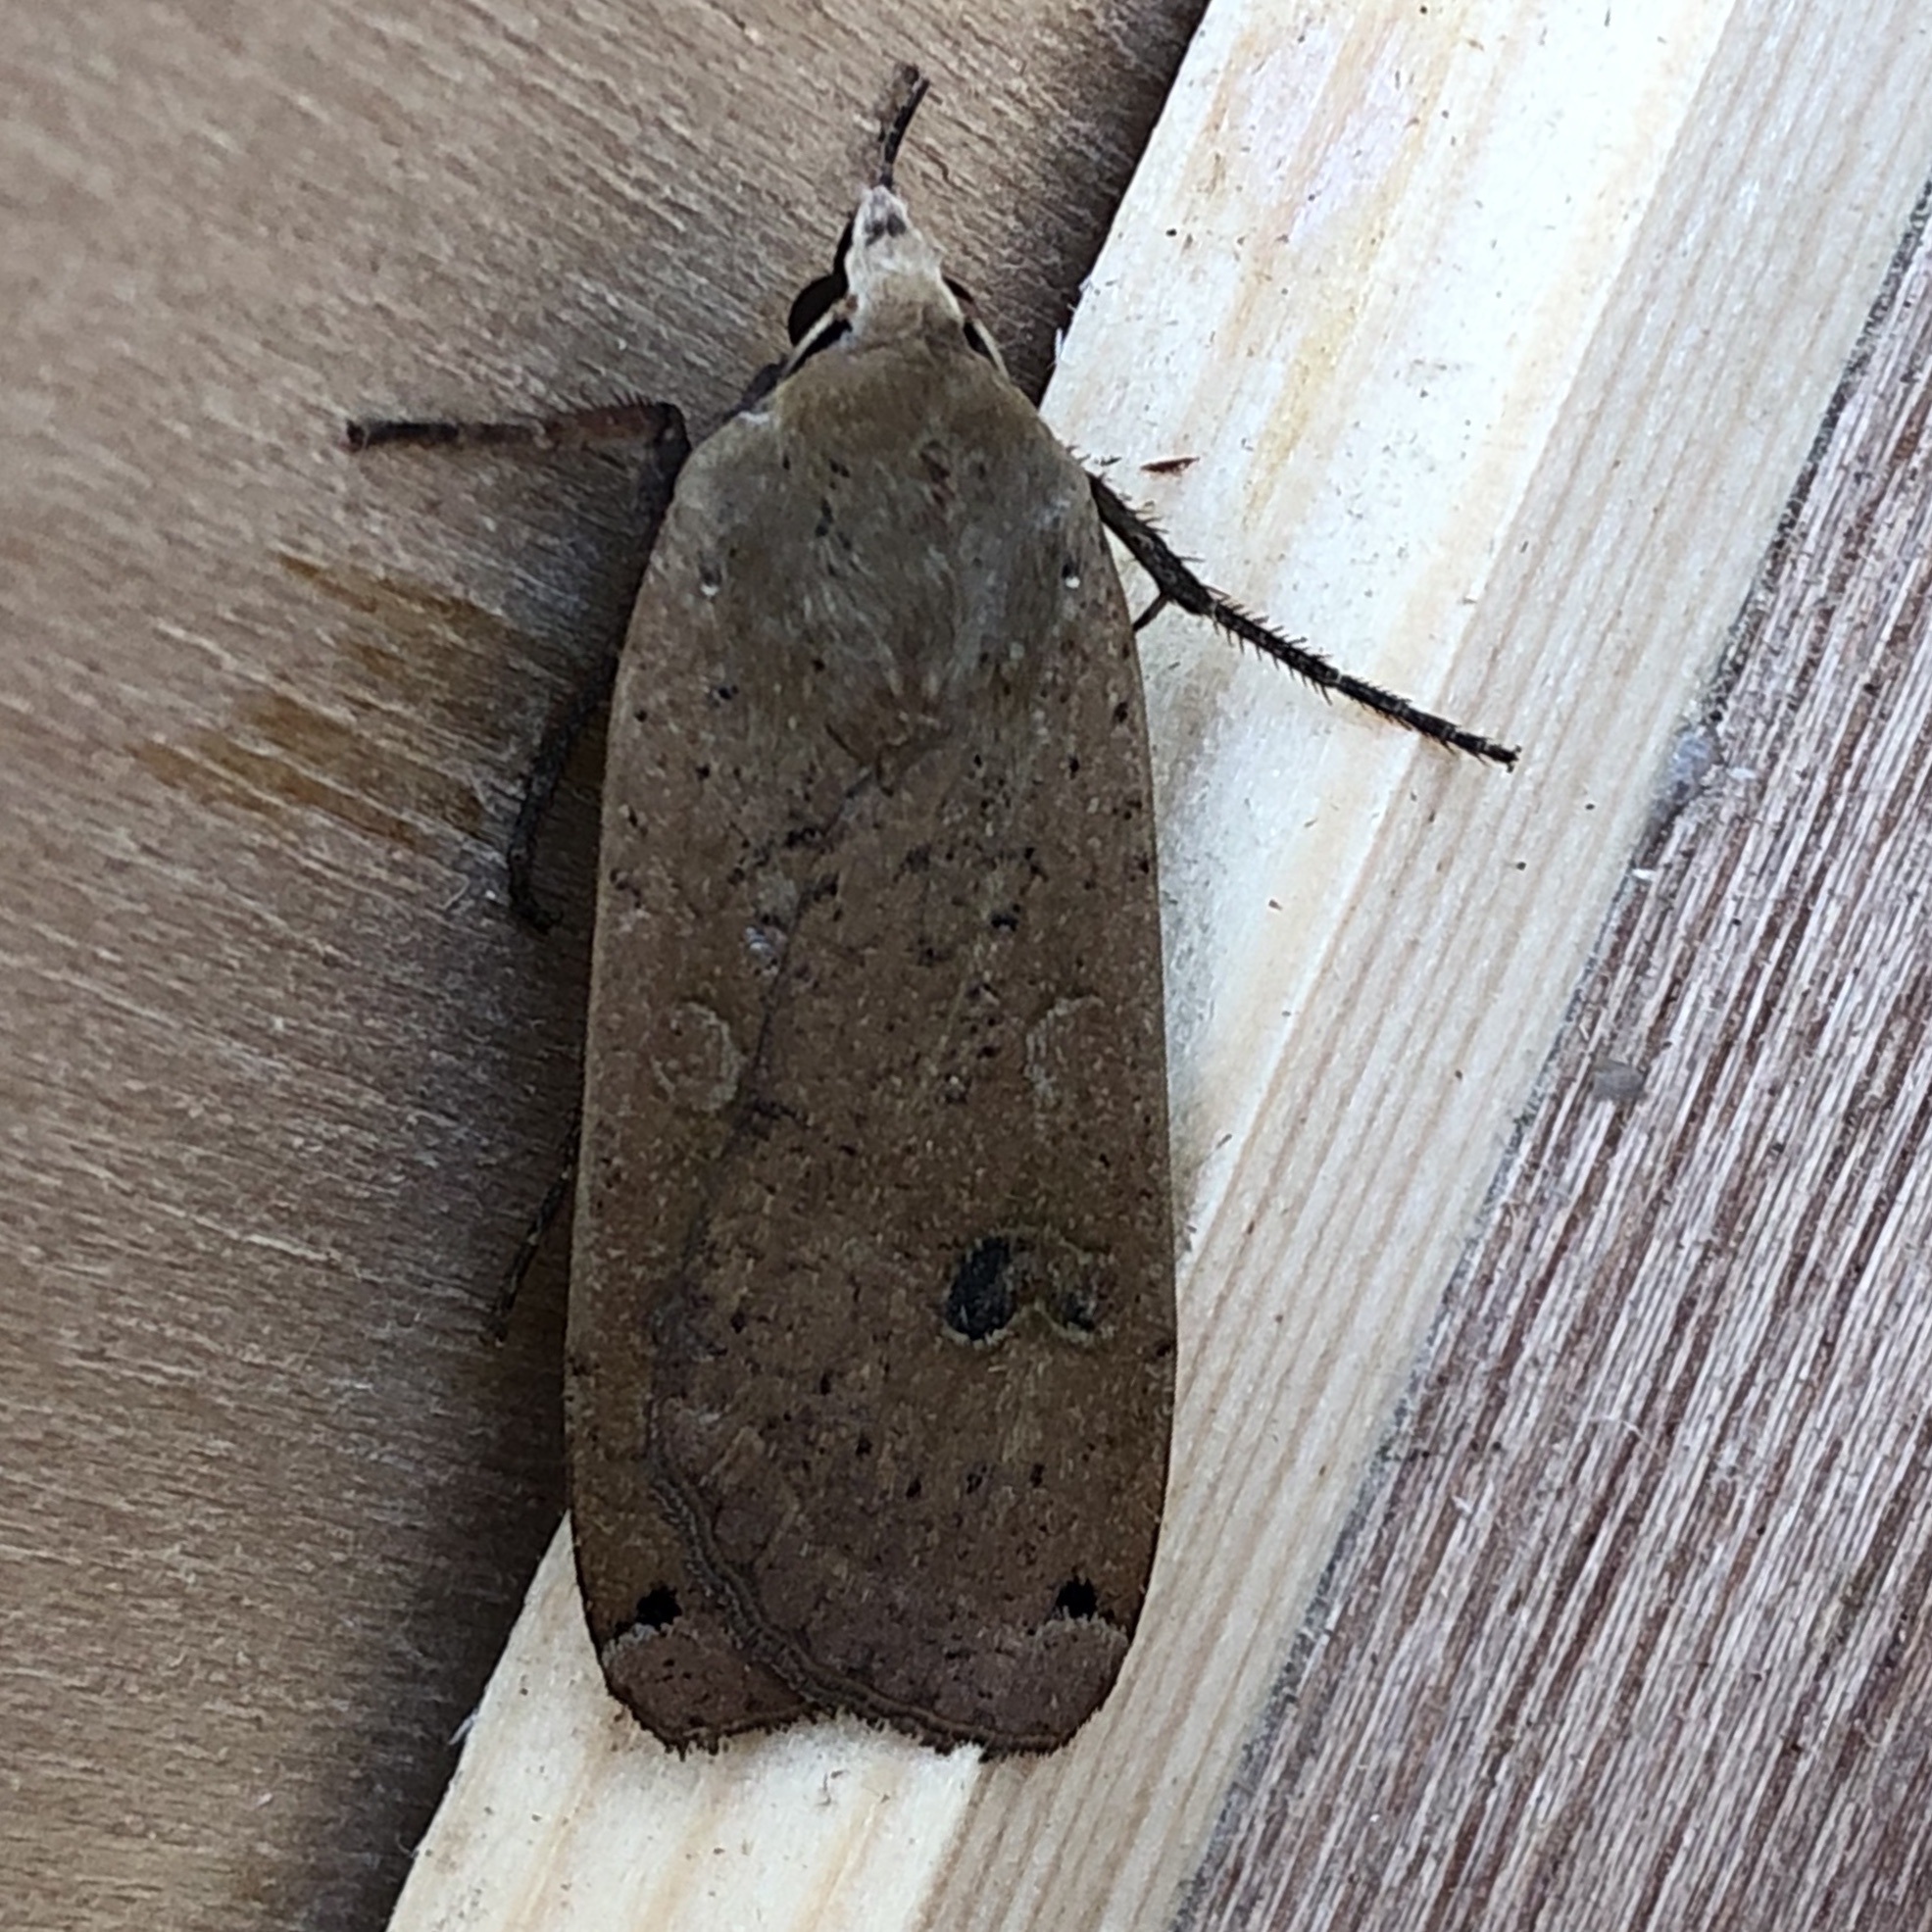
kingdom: Animalia
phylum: Arthropoda
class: Insecta
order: Lepidoptera
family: Noctuidae
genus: Noctua
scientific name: Noctua pronuba
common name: Large yellow underwing
